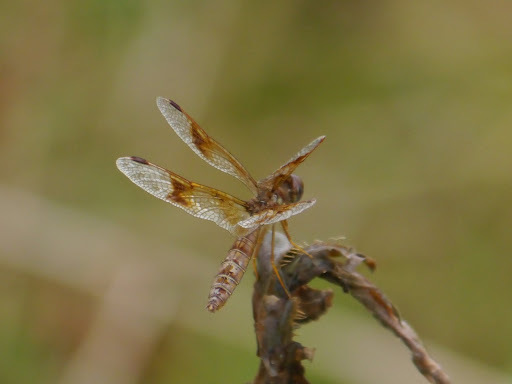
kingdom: Animalia
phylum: Arthropoda
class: Insecta
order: Odonata
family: Libellulidae
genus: Perithemis
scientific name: Perithemis tenera
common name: Eastern amberwing
